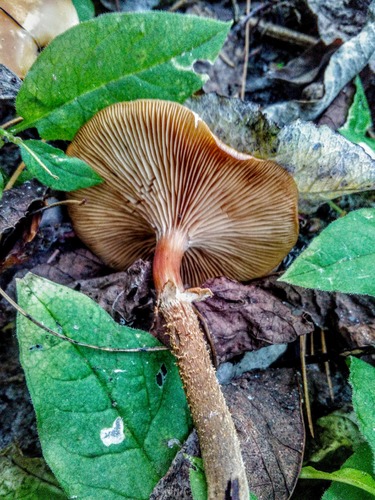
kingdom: Fungi
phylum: Basidiomycota
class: Agaricomycetes
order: Agaricales
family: Strophariaceae
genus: Kuehneromyces
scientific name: Kuehneromyces mutabilis
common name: Sheathed woodtuft
